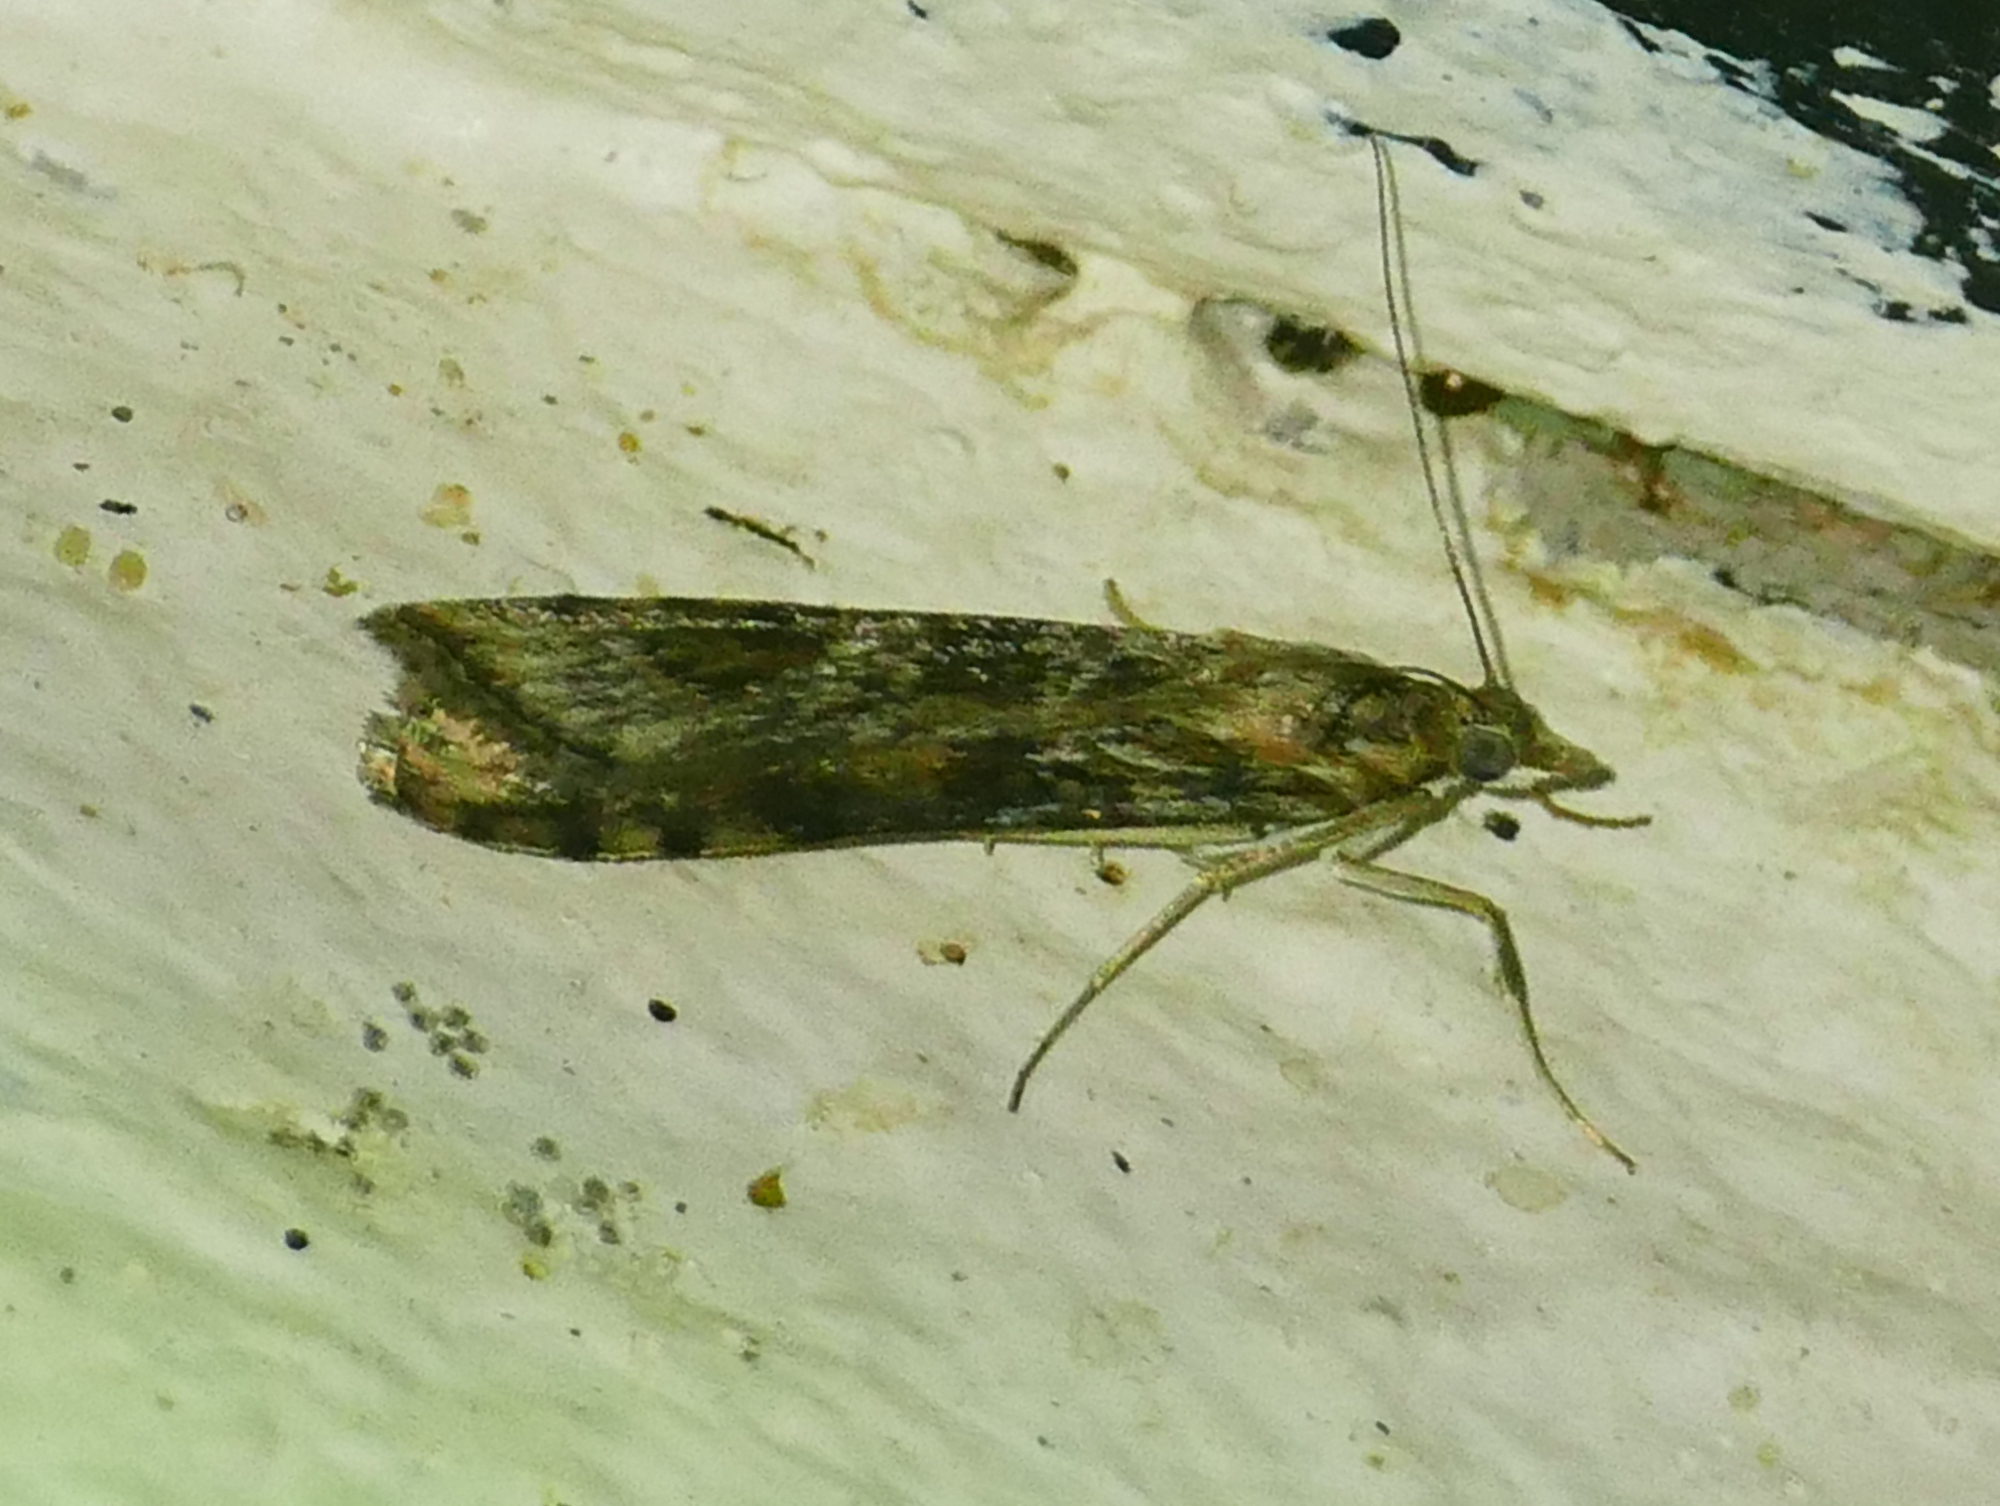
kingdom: Animalia
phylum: Arthropoda
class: Insecta
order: Lepidoptera
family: Crambidae
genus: Nomophila
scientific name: Nomophila nearctica
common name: American rush veneer
